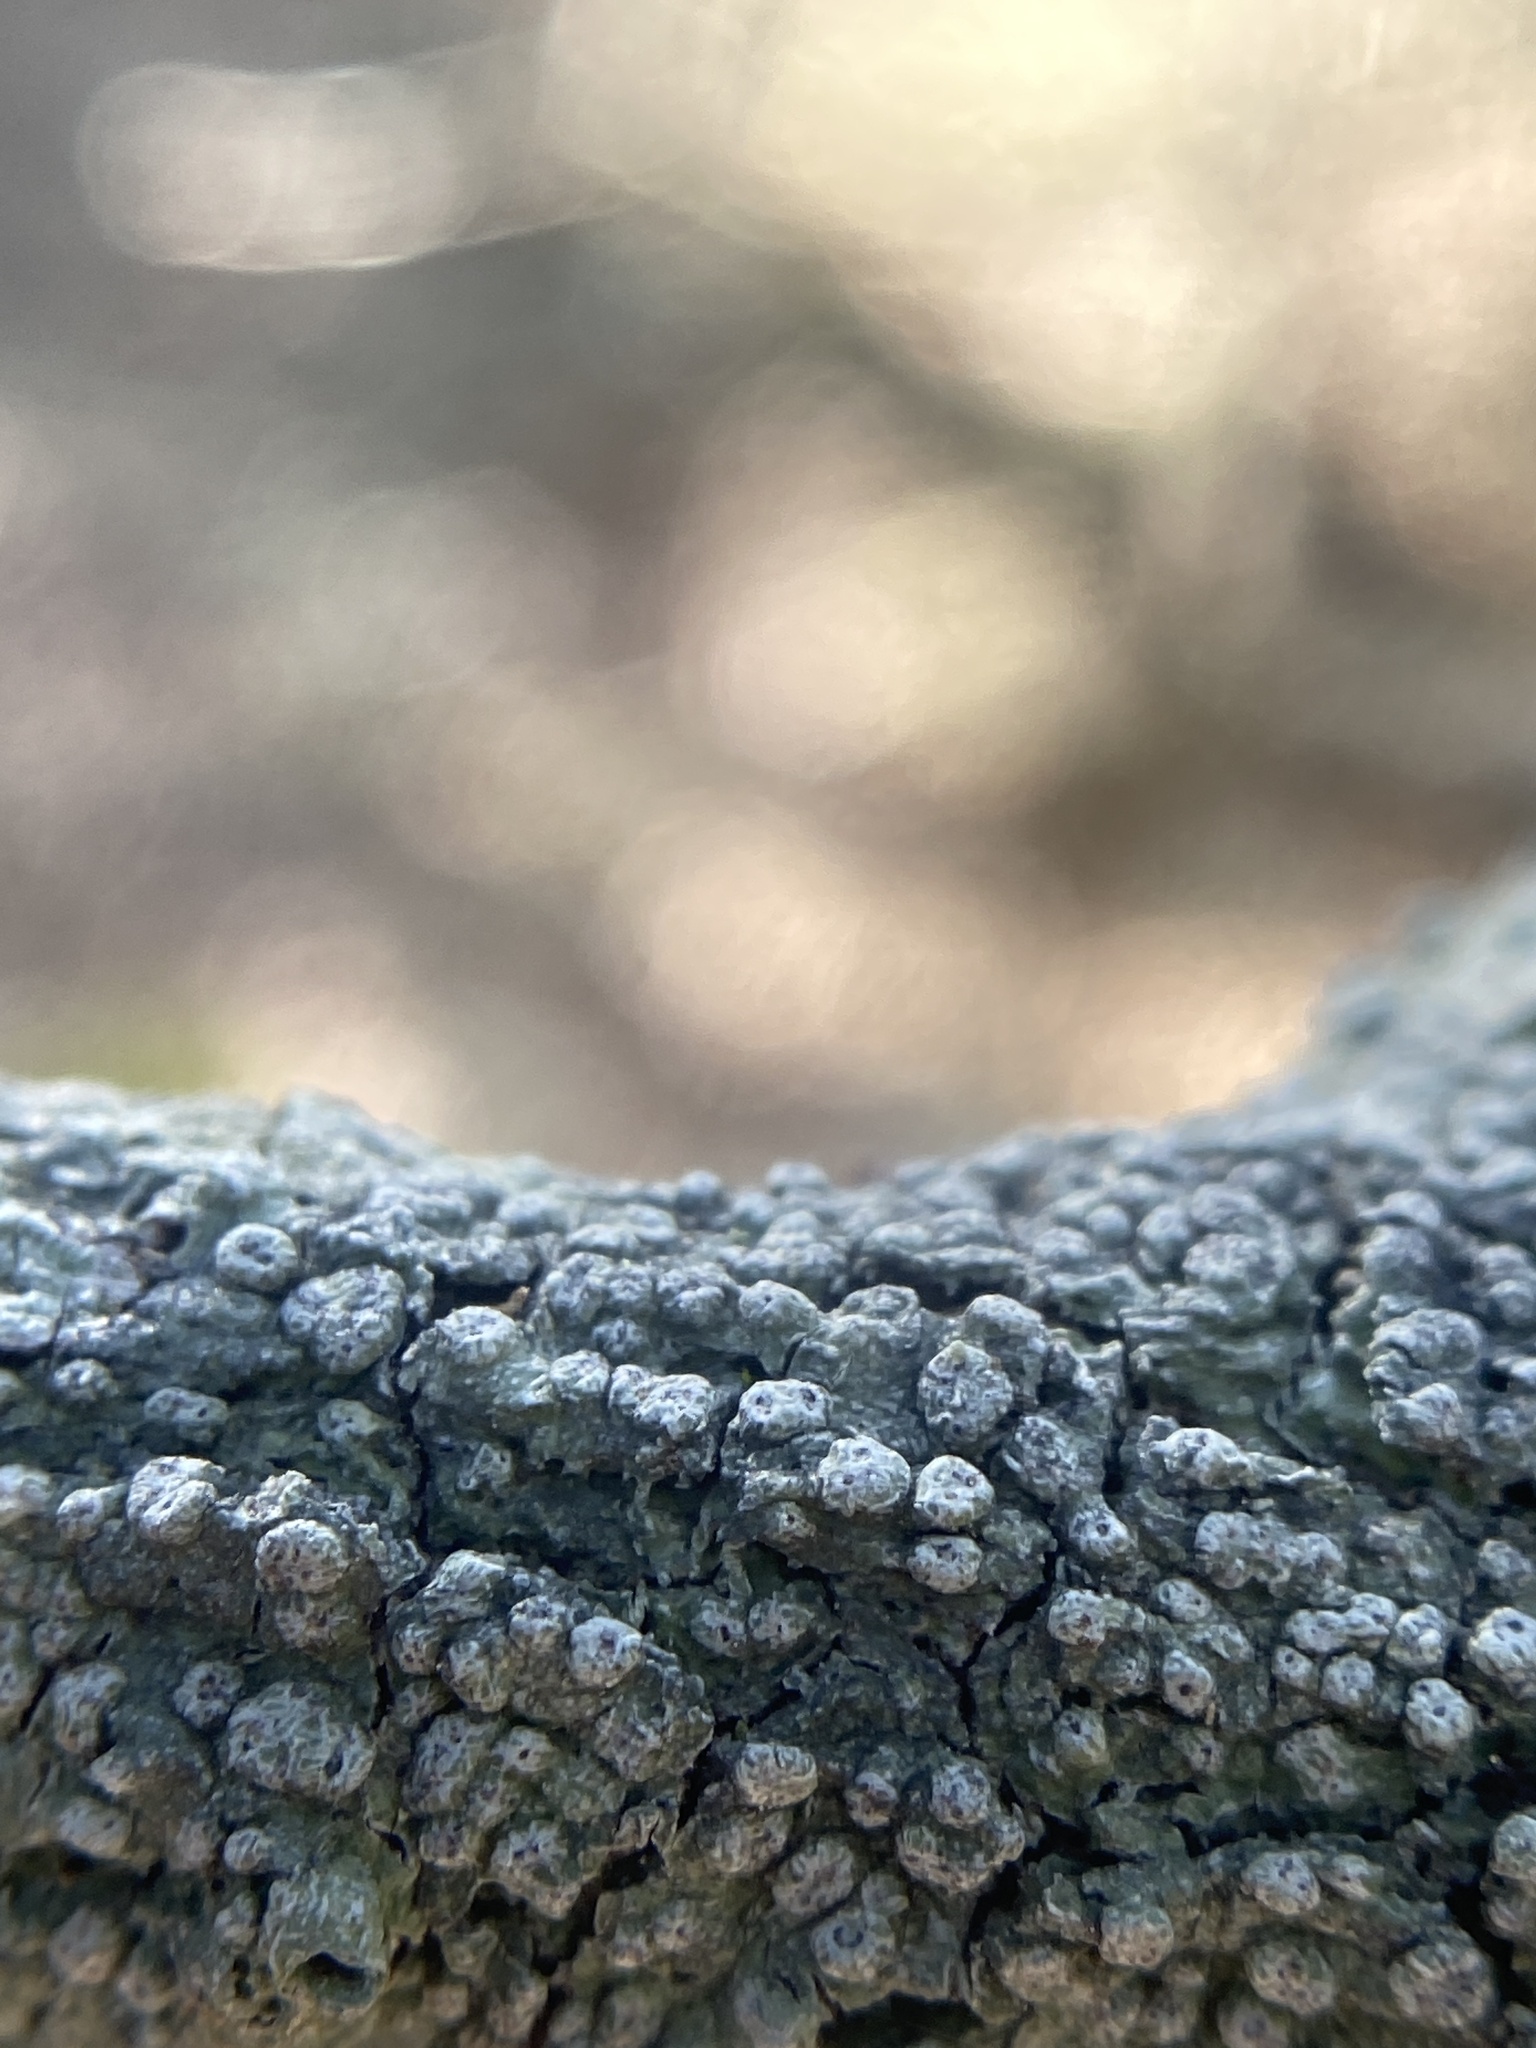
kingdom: Fungi
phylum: Ascomycota
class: Lecanoromycetes
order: Pertusariales
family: Pertusariaceae
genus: Pertusaria
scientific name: Pertusaria sinusmexicani
